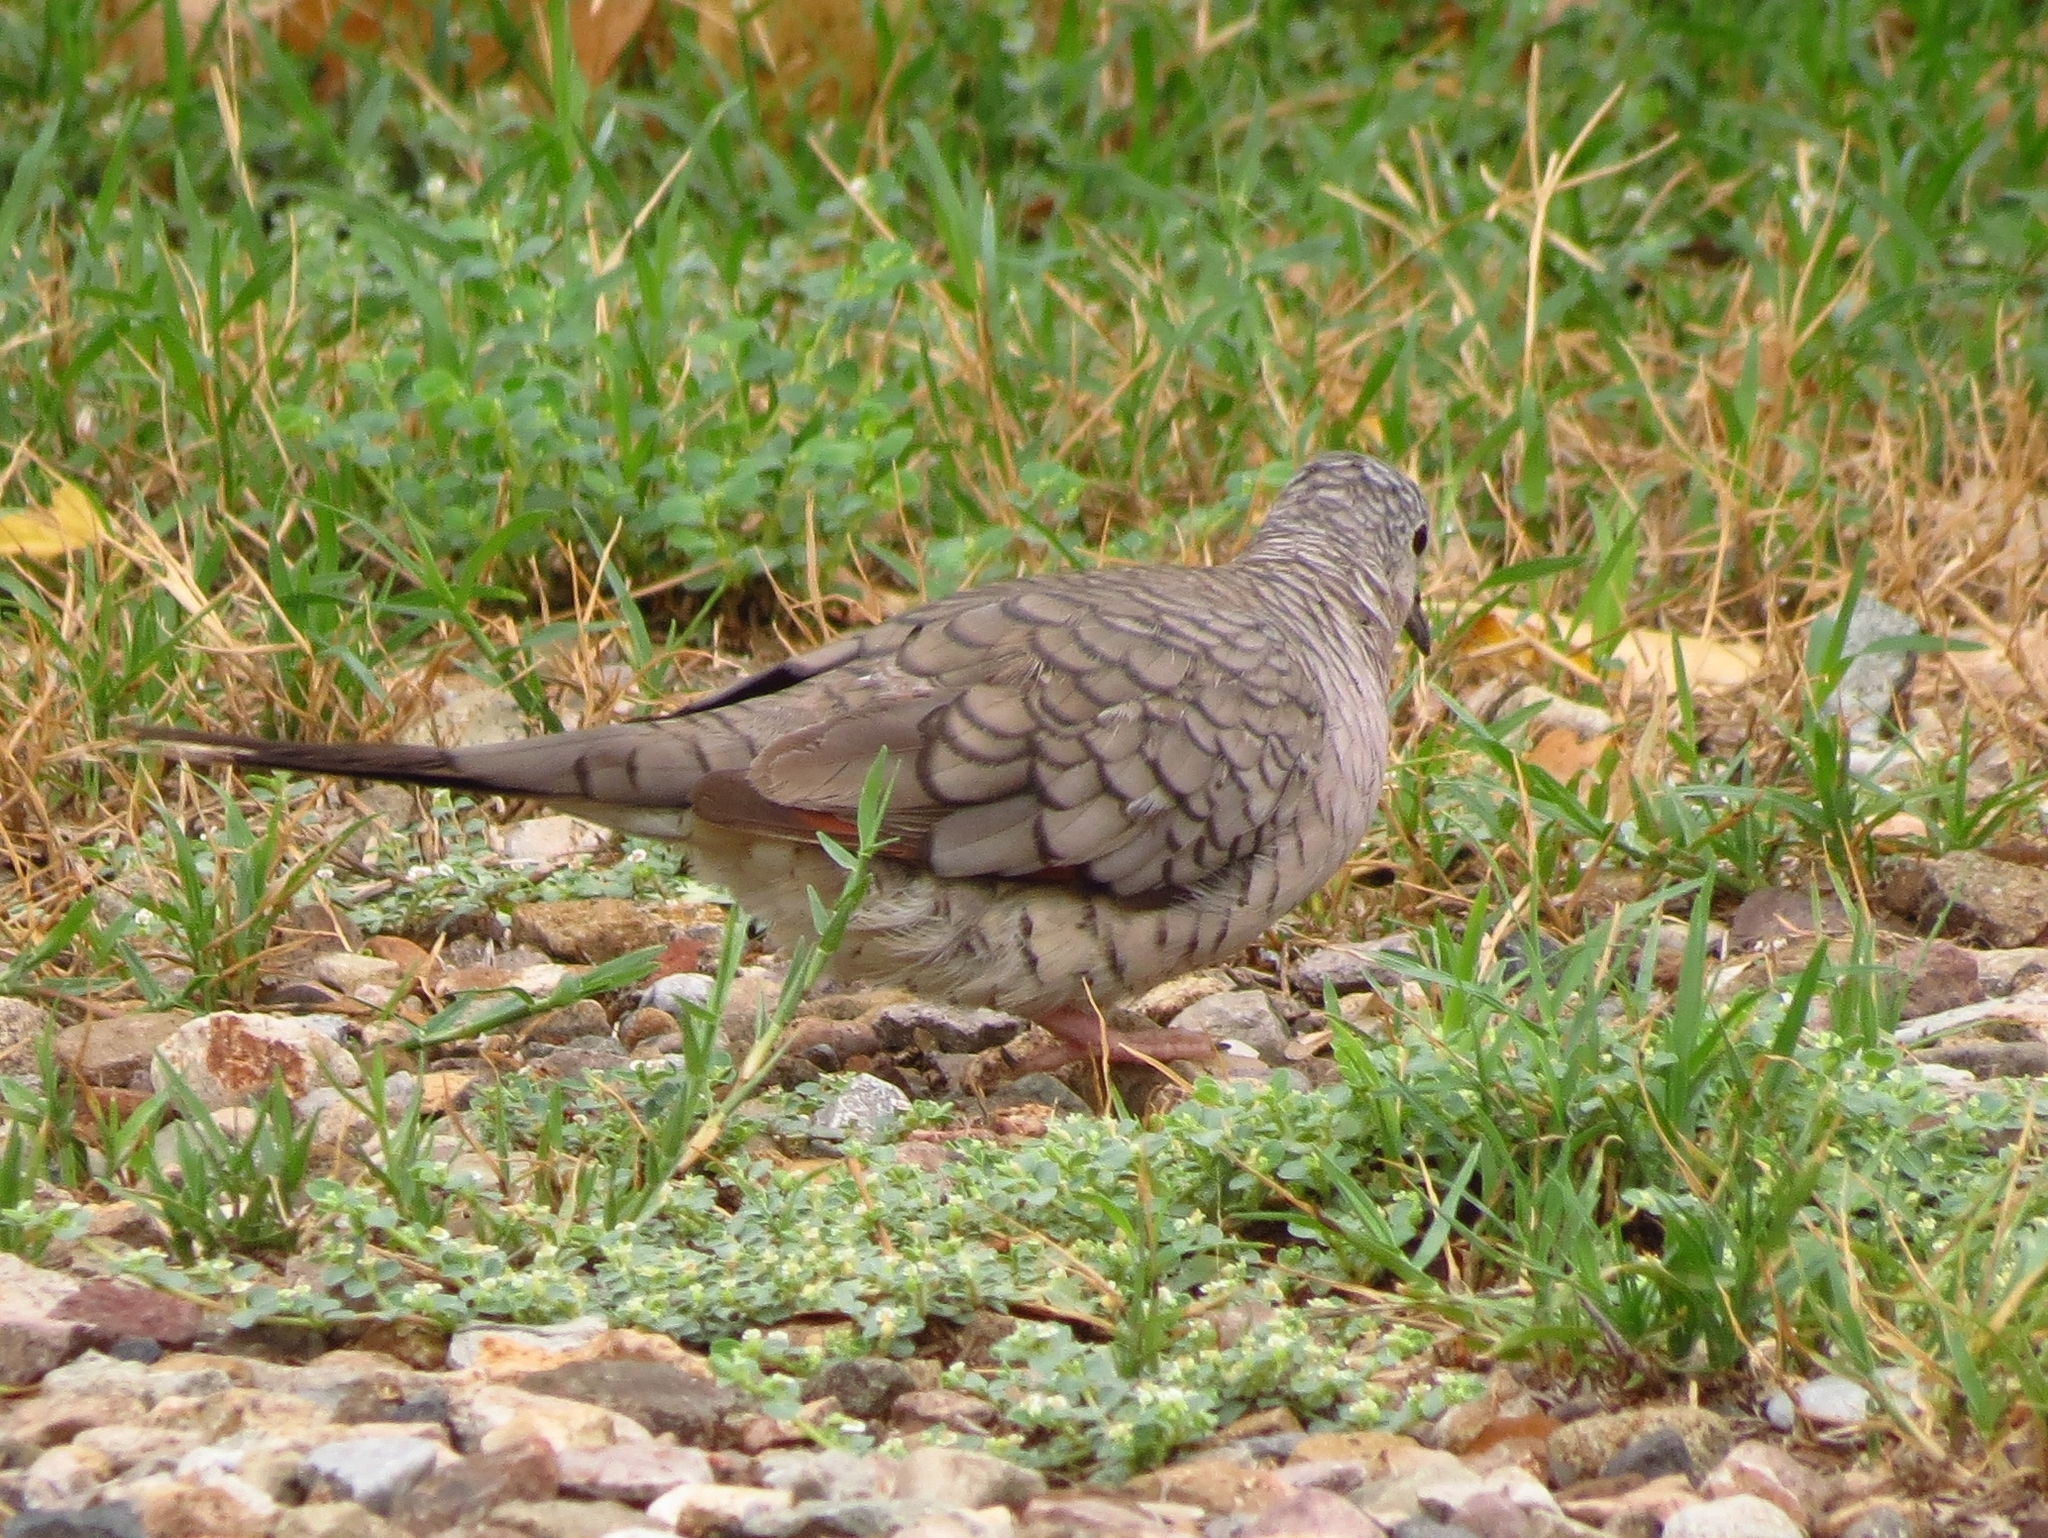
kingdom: Animalia
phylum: Chordata
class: Aves
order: Columbiformes
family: Columbidae
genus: Columbina
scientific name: Columbina inca
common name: Inca dove
